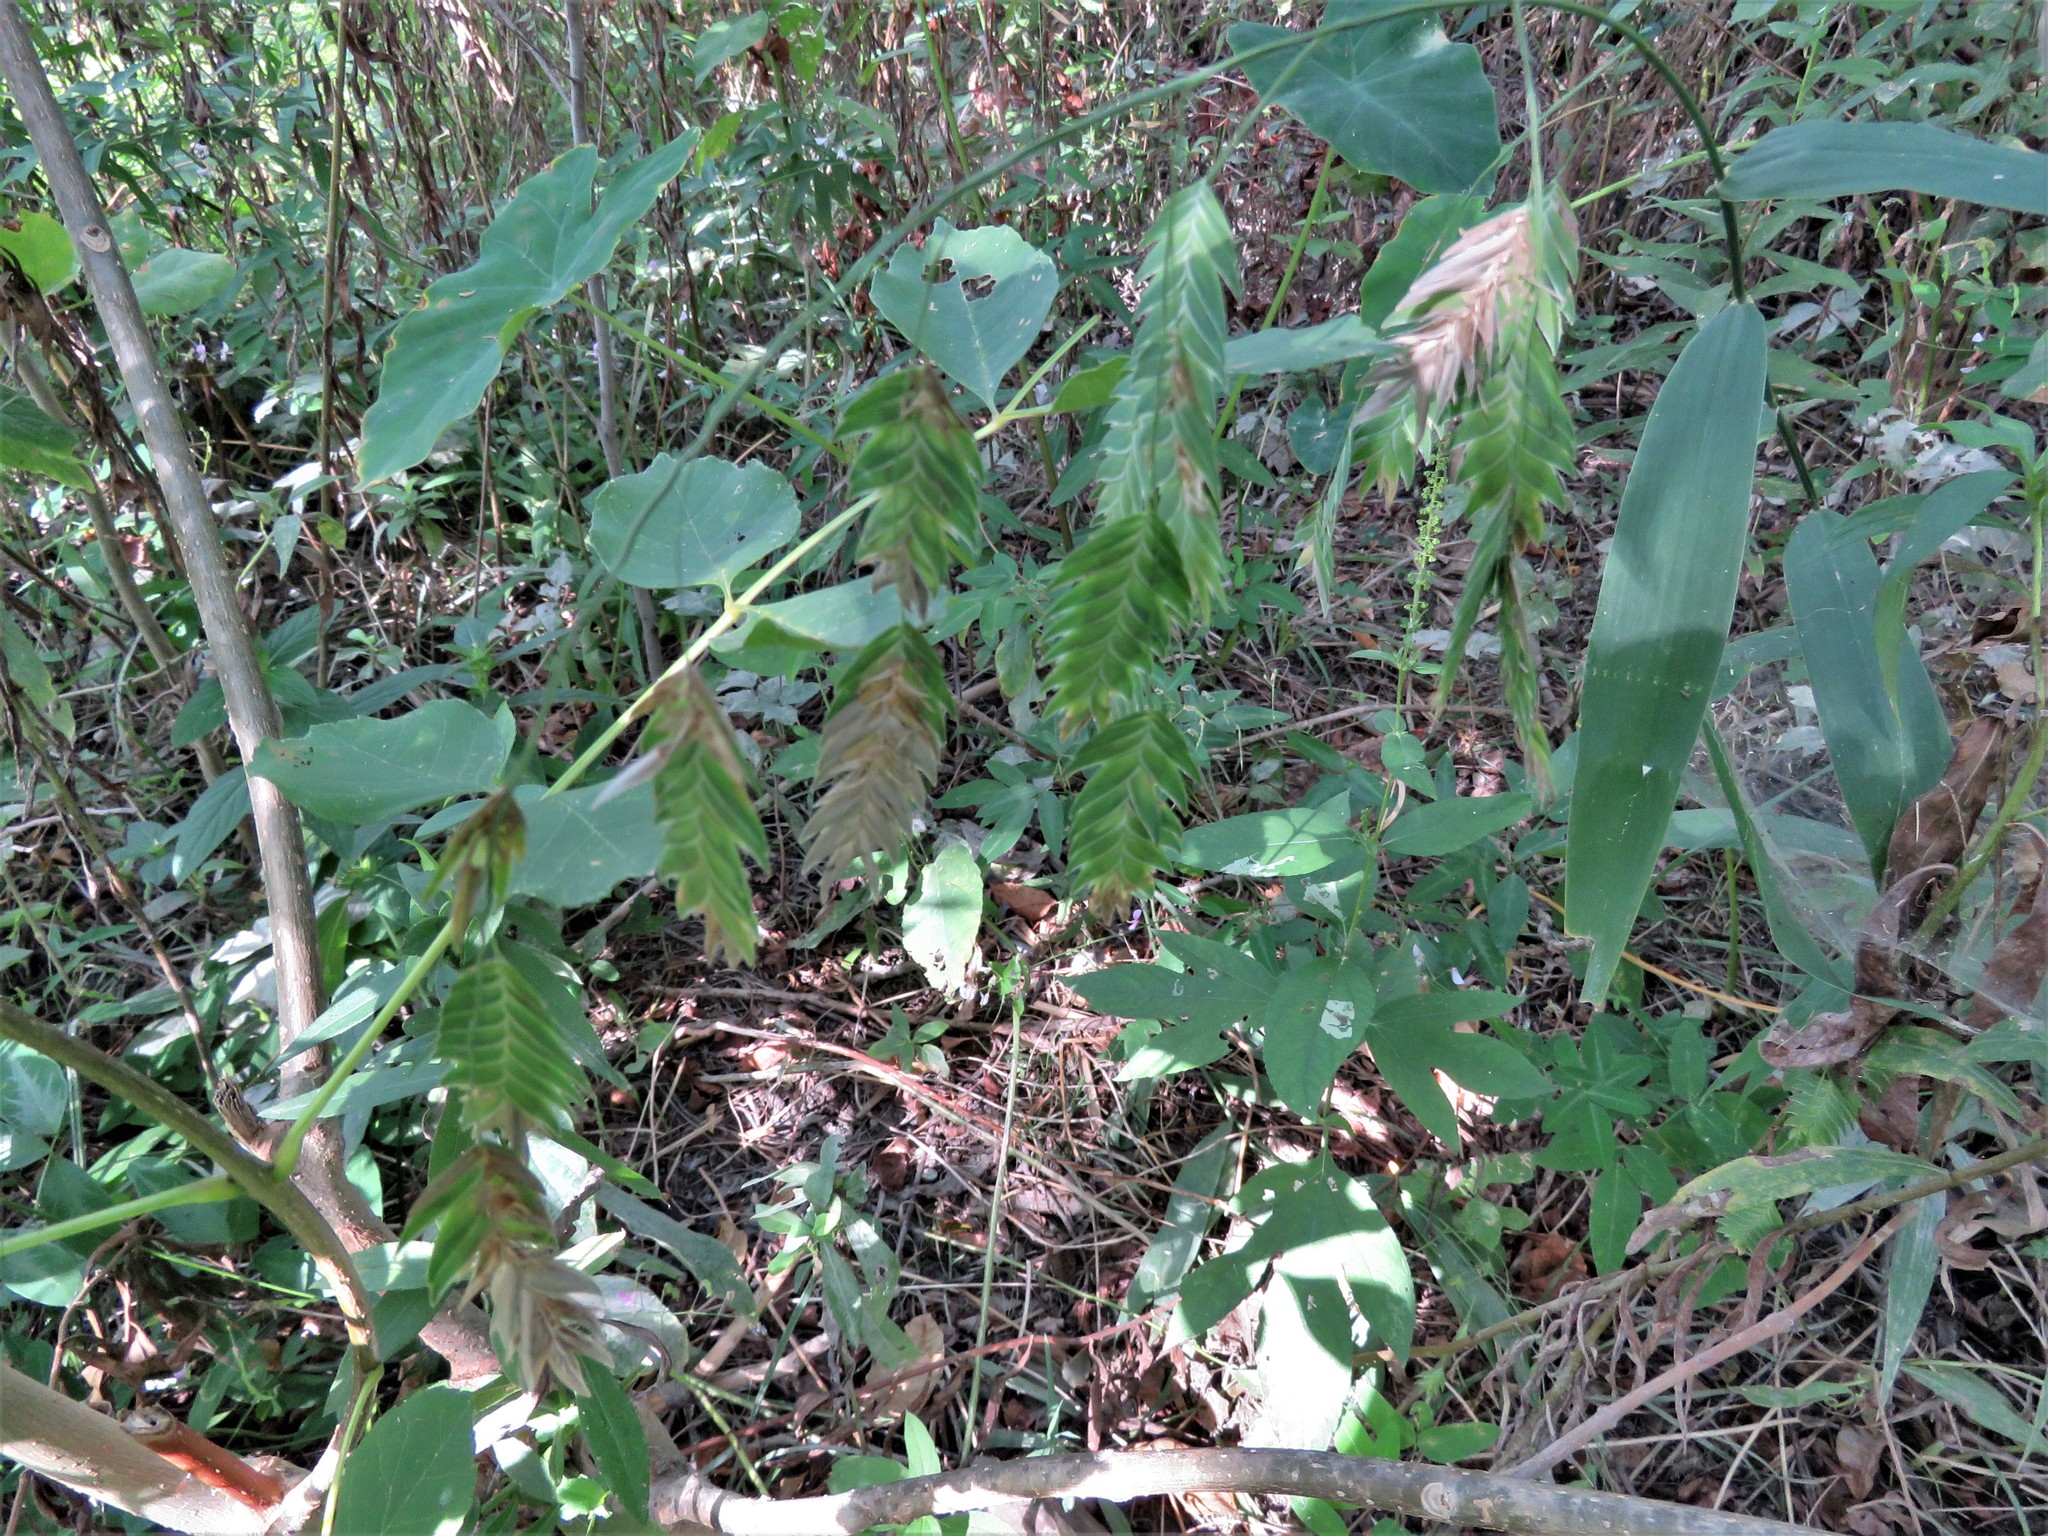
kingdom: Plantae
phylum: Tracheophyta
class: Liliopsida
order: Poales
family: Poaceae
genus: Chasmanthium
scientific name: Chasmanthium latifolium
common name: Broad-leaved chasmanthium
